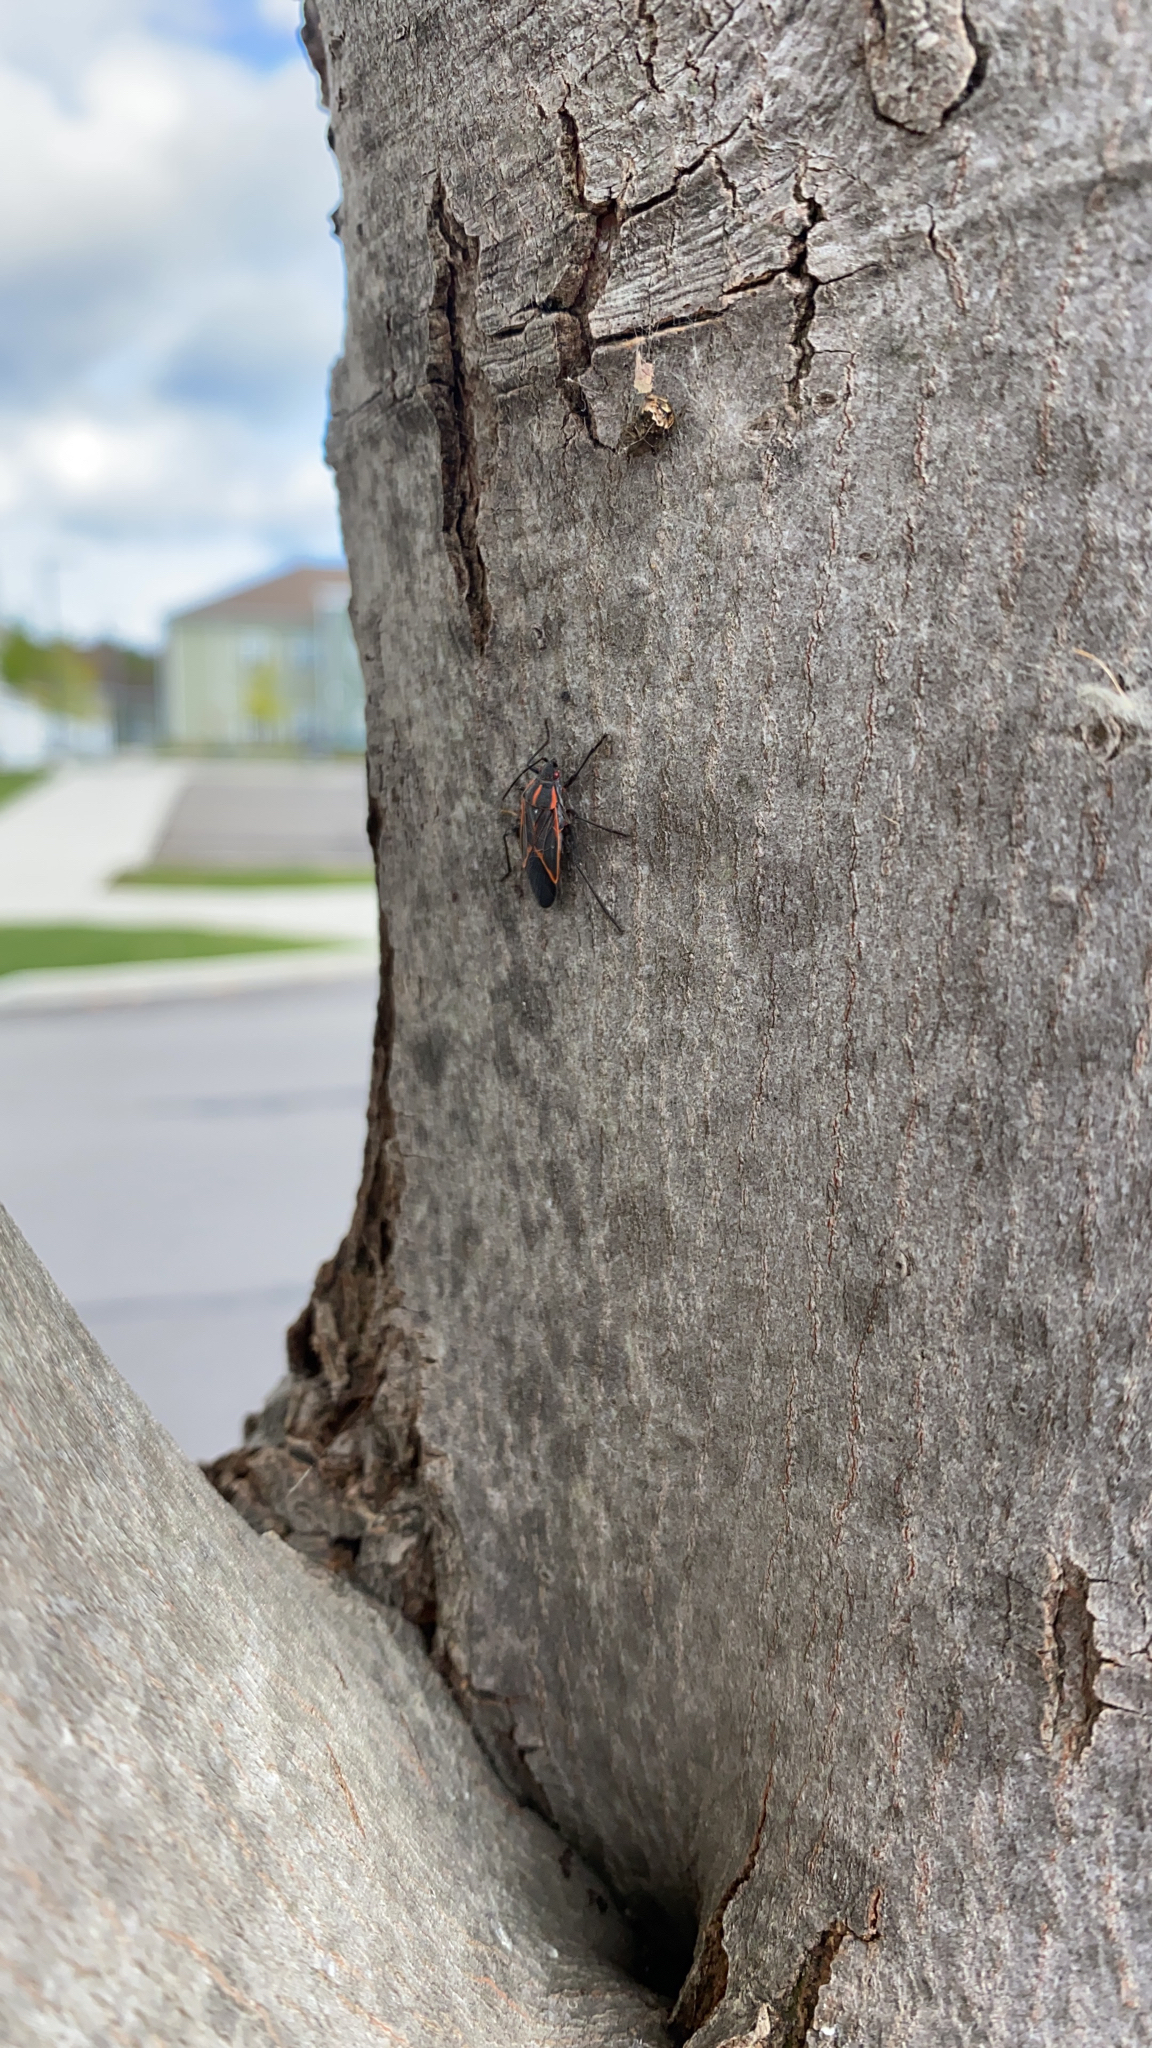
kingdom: Animalia
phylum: Arthropoda
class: Insecta
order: Hemiptera
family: Rhopalidae
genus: Boisea
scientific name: Boisea trivittata
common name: Boxelder bug
